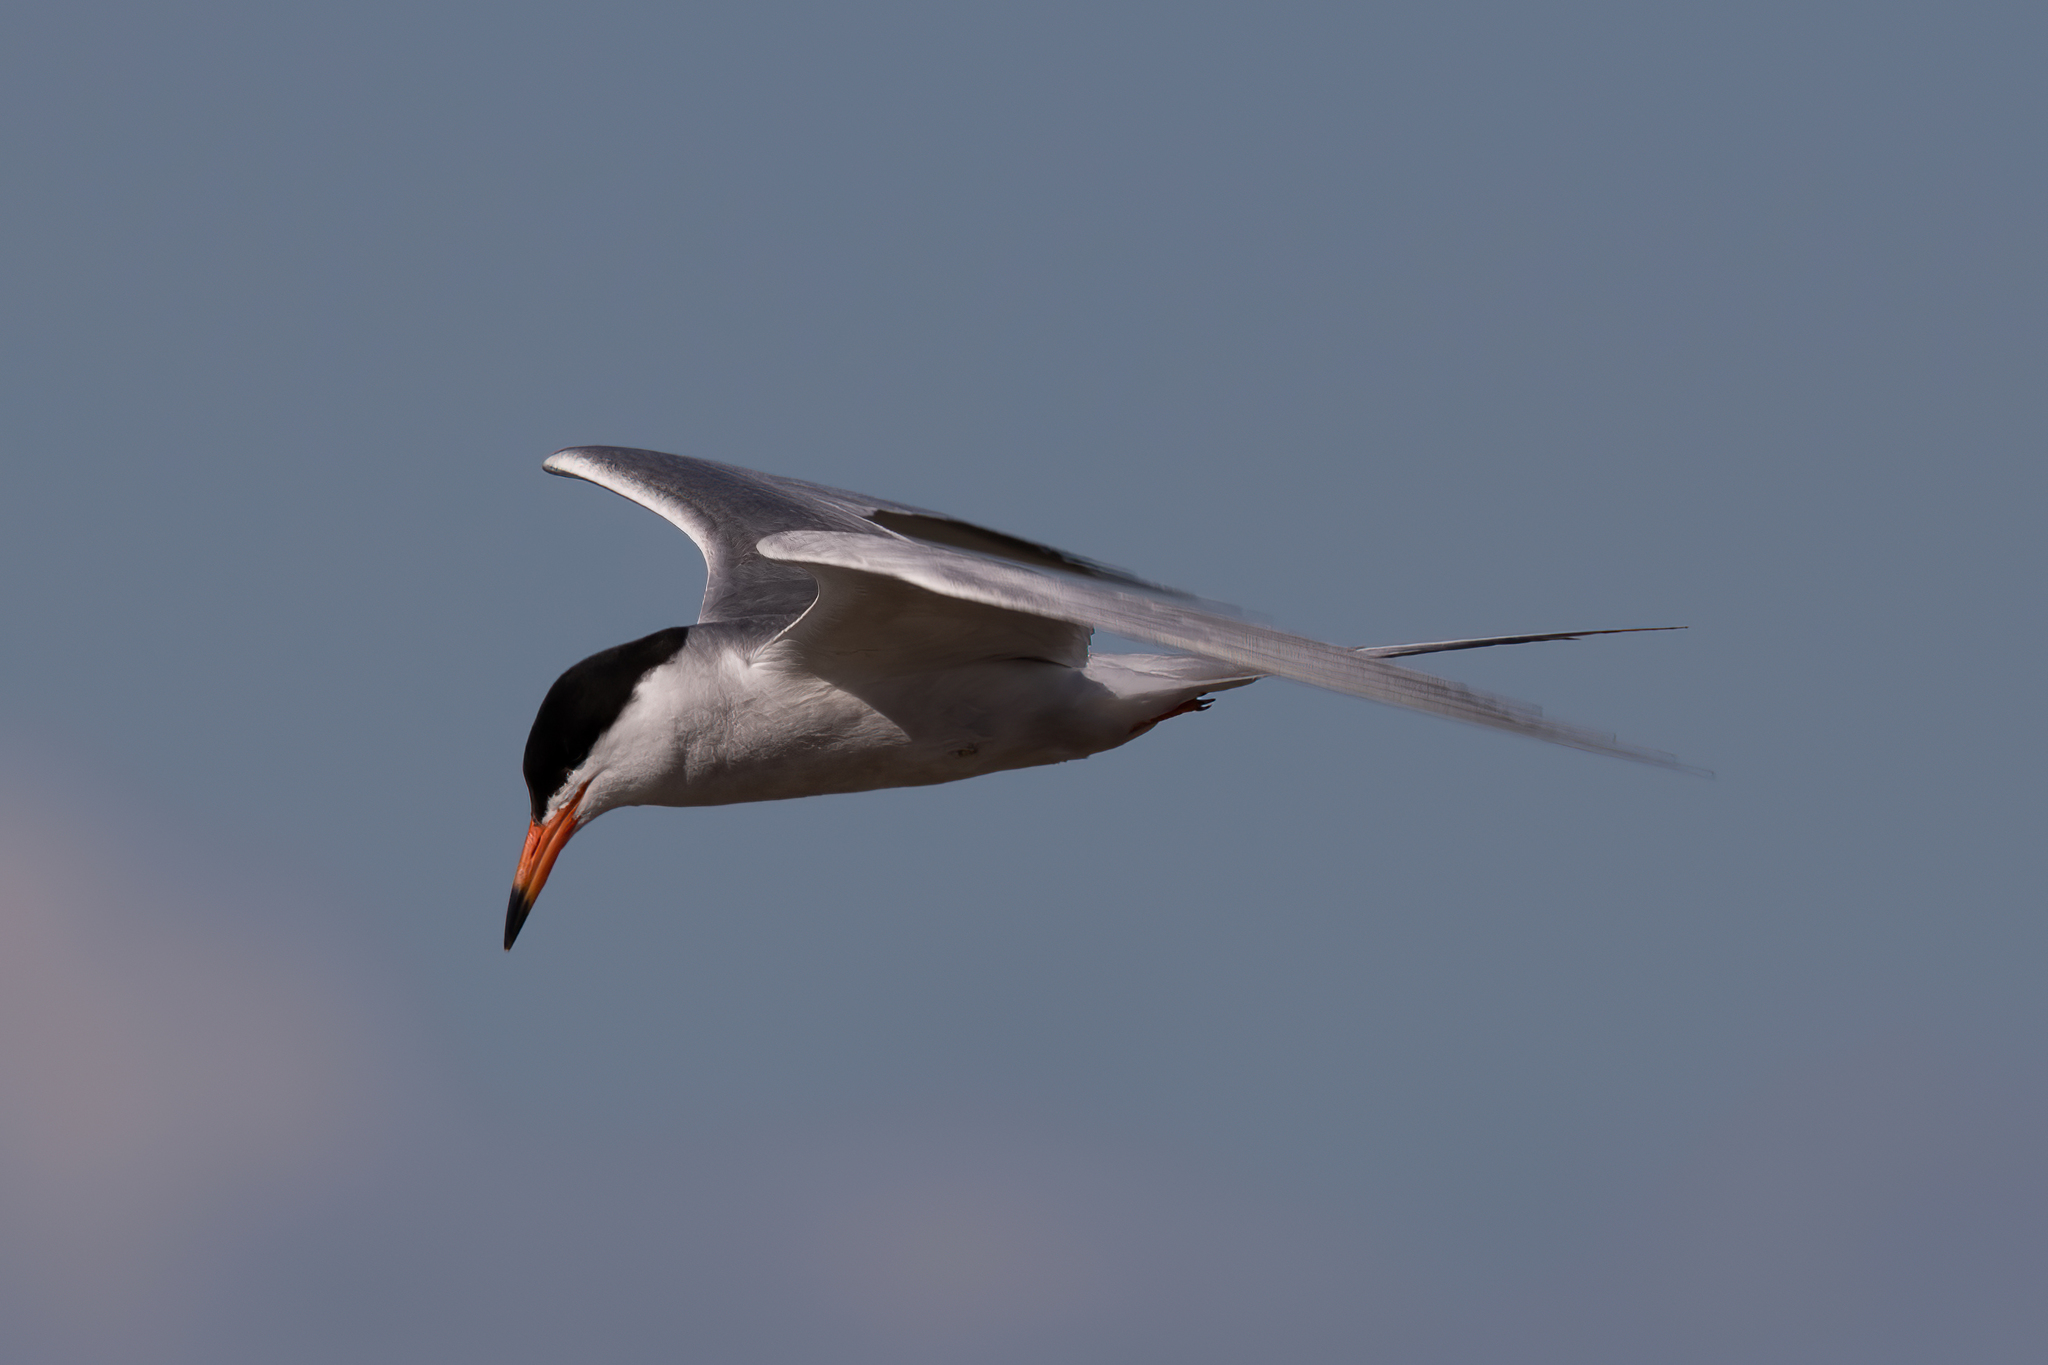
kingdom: Animalia
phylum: Chordata
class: Aves
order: Charadriiformes
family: Laridae
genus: Sterna
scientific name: Sterna forsteri
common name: Forster's tern
